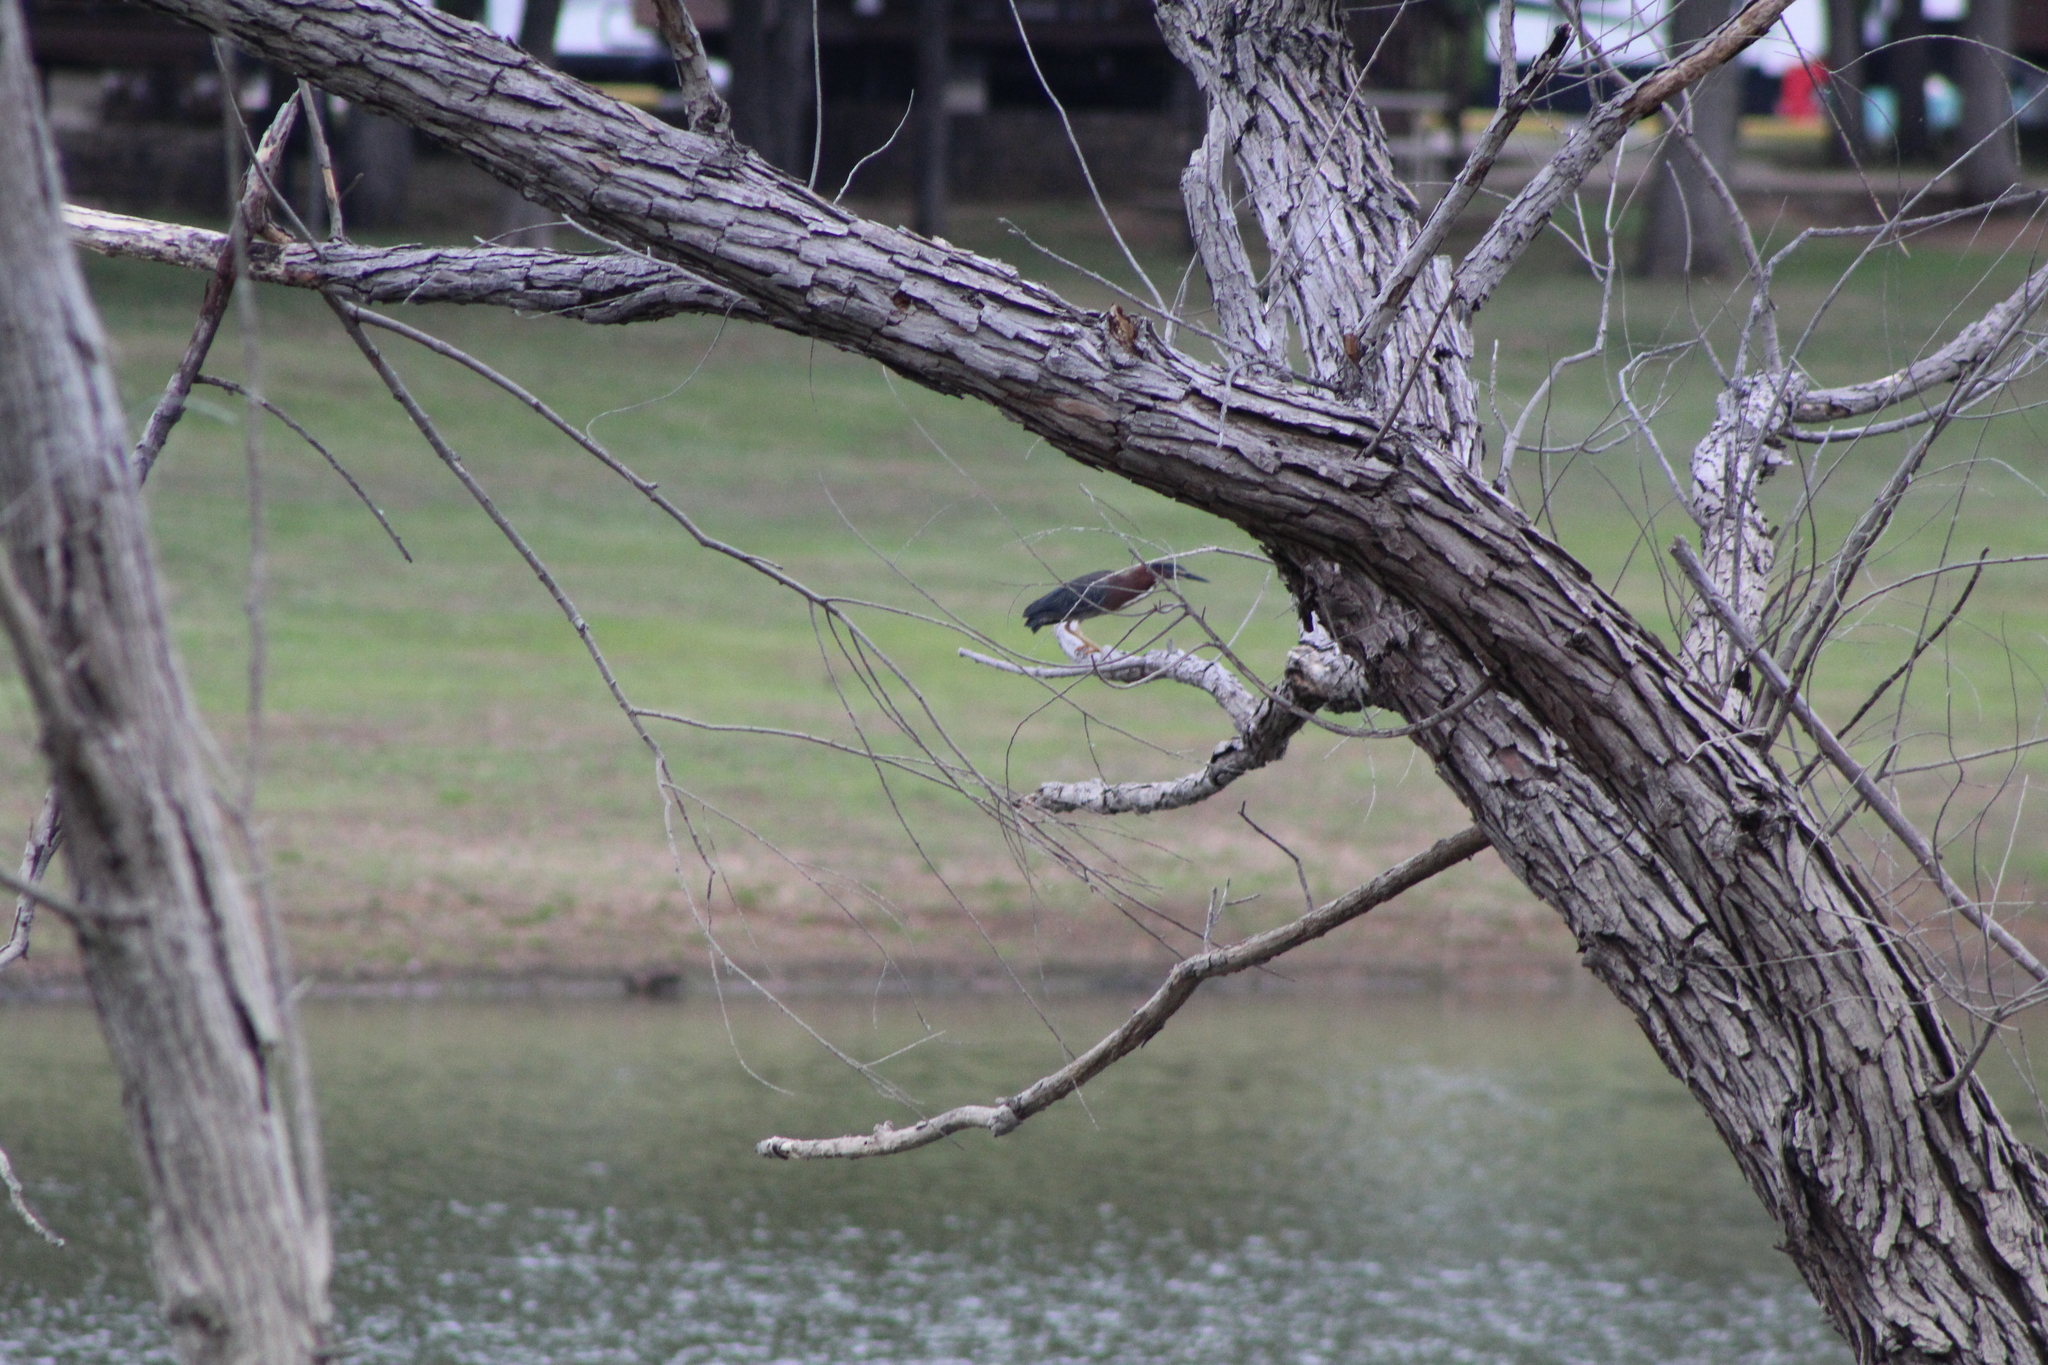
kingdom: Animalia
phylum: Chordata
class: Aves
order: Pelecaniformes
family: Ardeidae
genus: Butorides
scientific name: Butorides virescens
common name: Green heron
